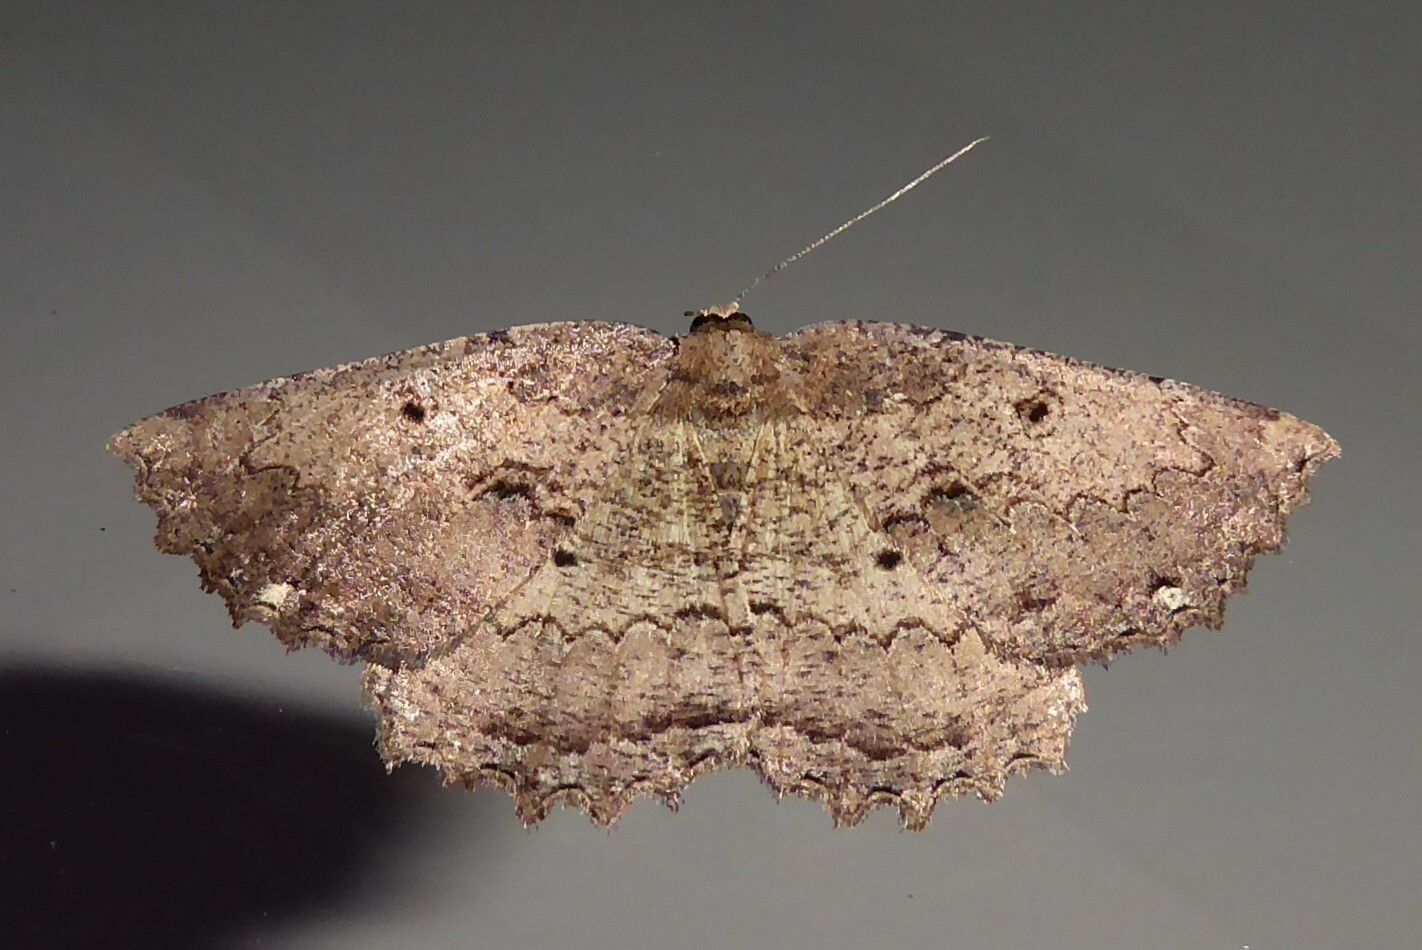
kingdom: Animalia
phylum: Arthropoda
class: Insecta
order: Lepidoptera
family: Geometridae
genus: Gellonia
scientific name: Gellonia pannularia
